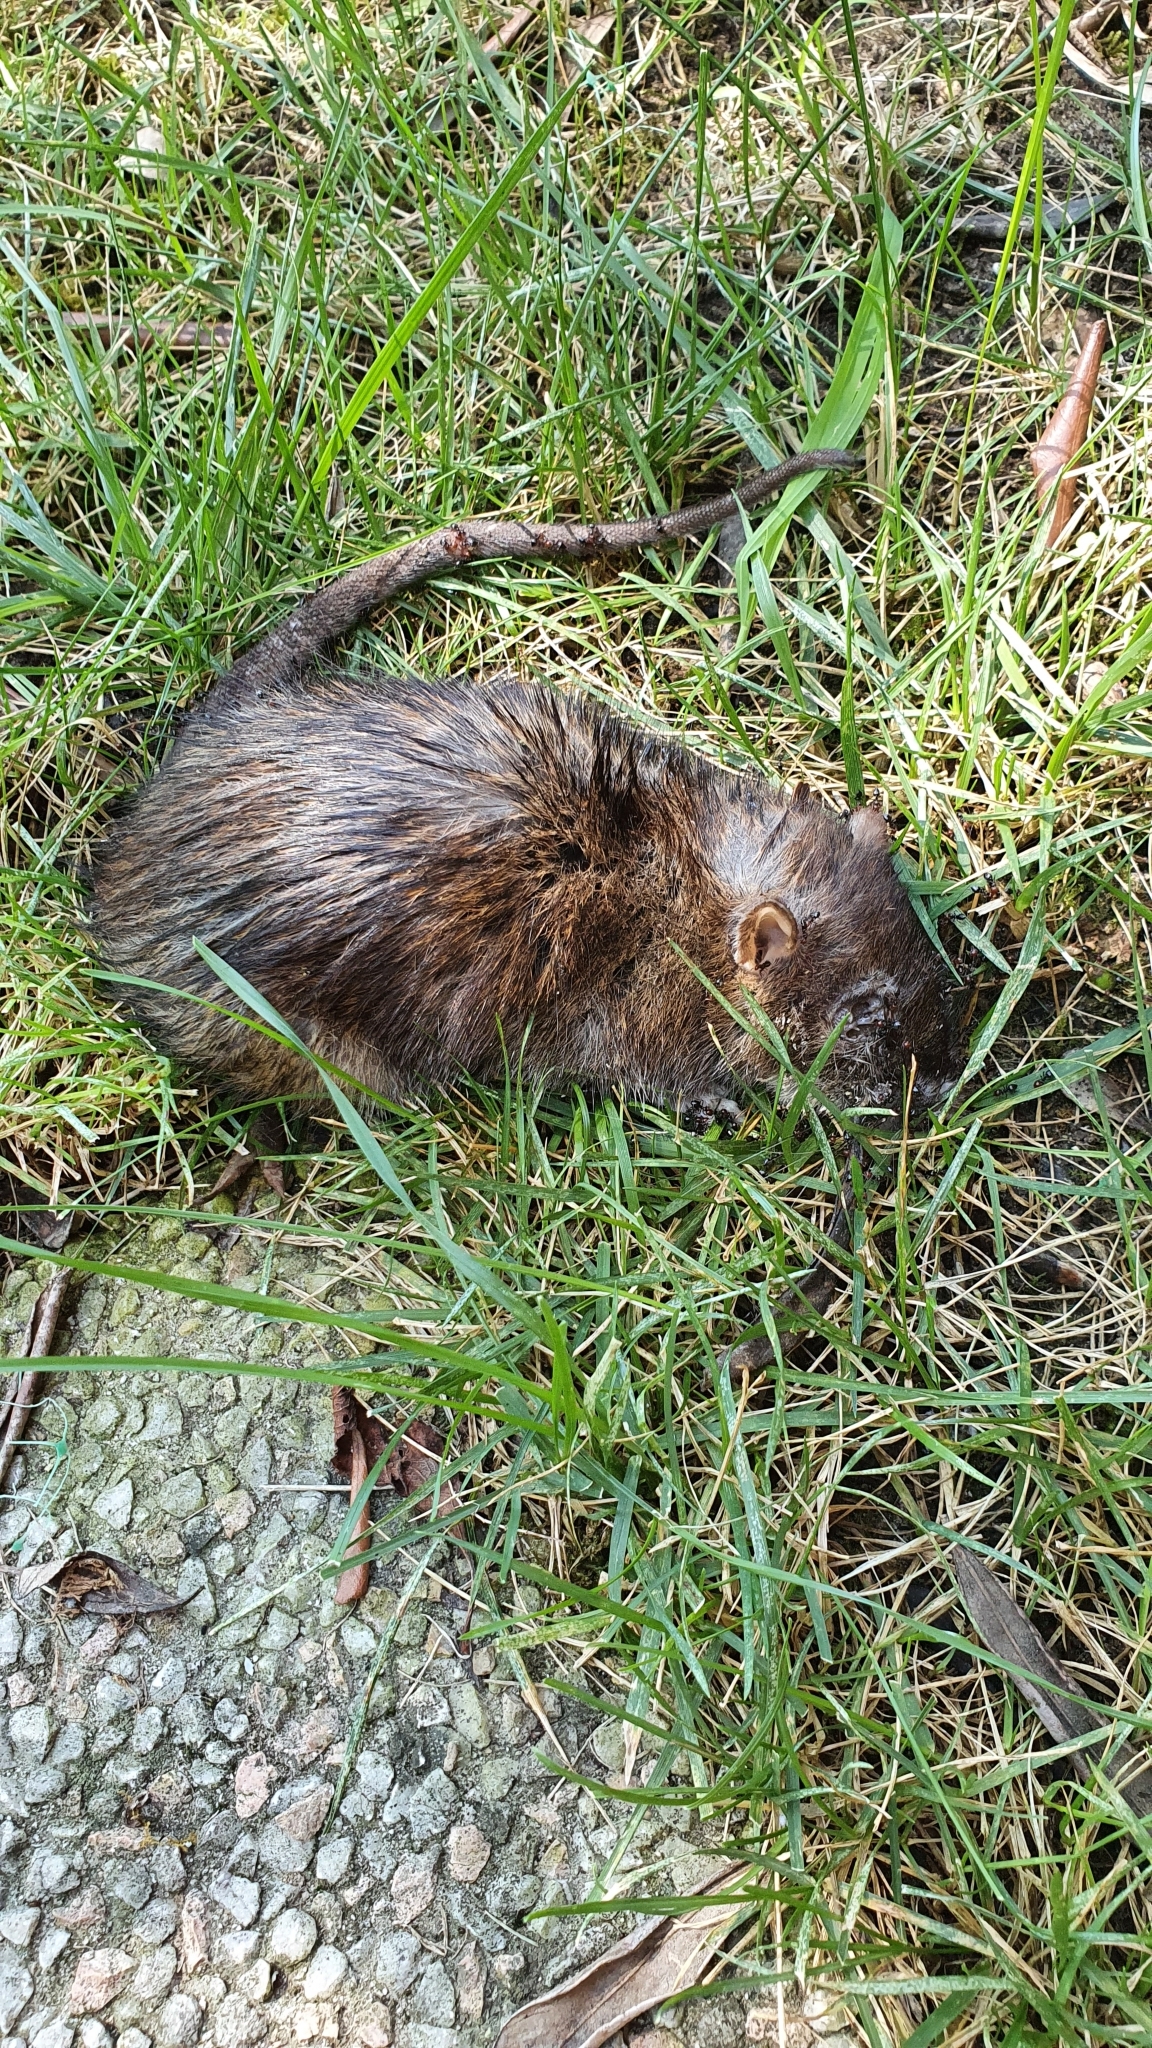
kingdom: Animalia
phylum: Chordata
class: Mammalia
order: Rodentia
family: Muridae
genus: Rattus
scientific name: Rattus norvegicus
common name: Brown rat
